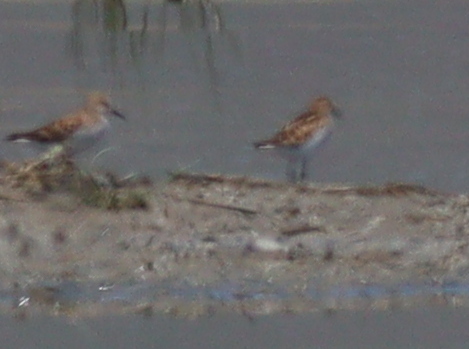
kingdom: Animalia
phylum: Chordata
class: Aves
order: Charadriiformes
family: Scolopacidae
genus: Calidris
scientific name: Calidris minuta
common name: Little stint
